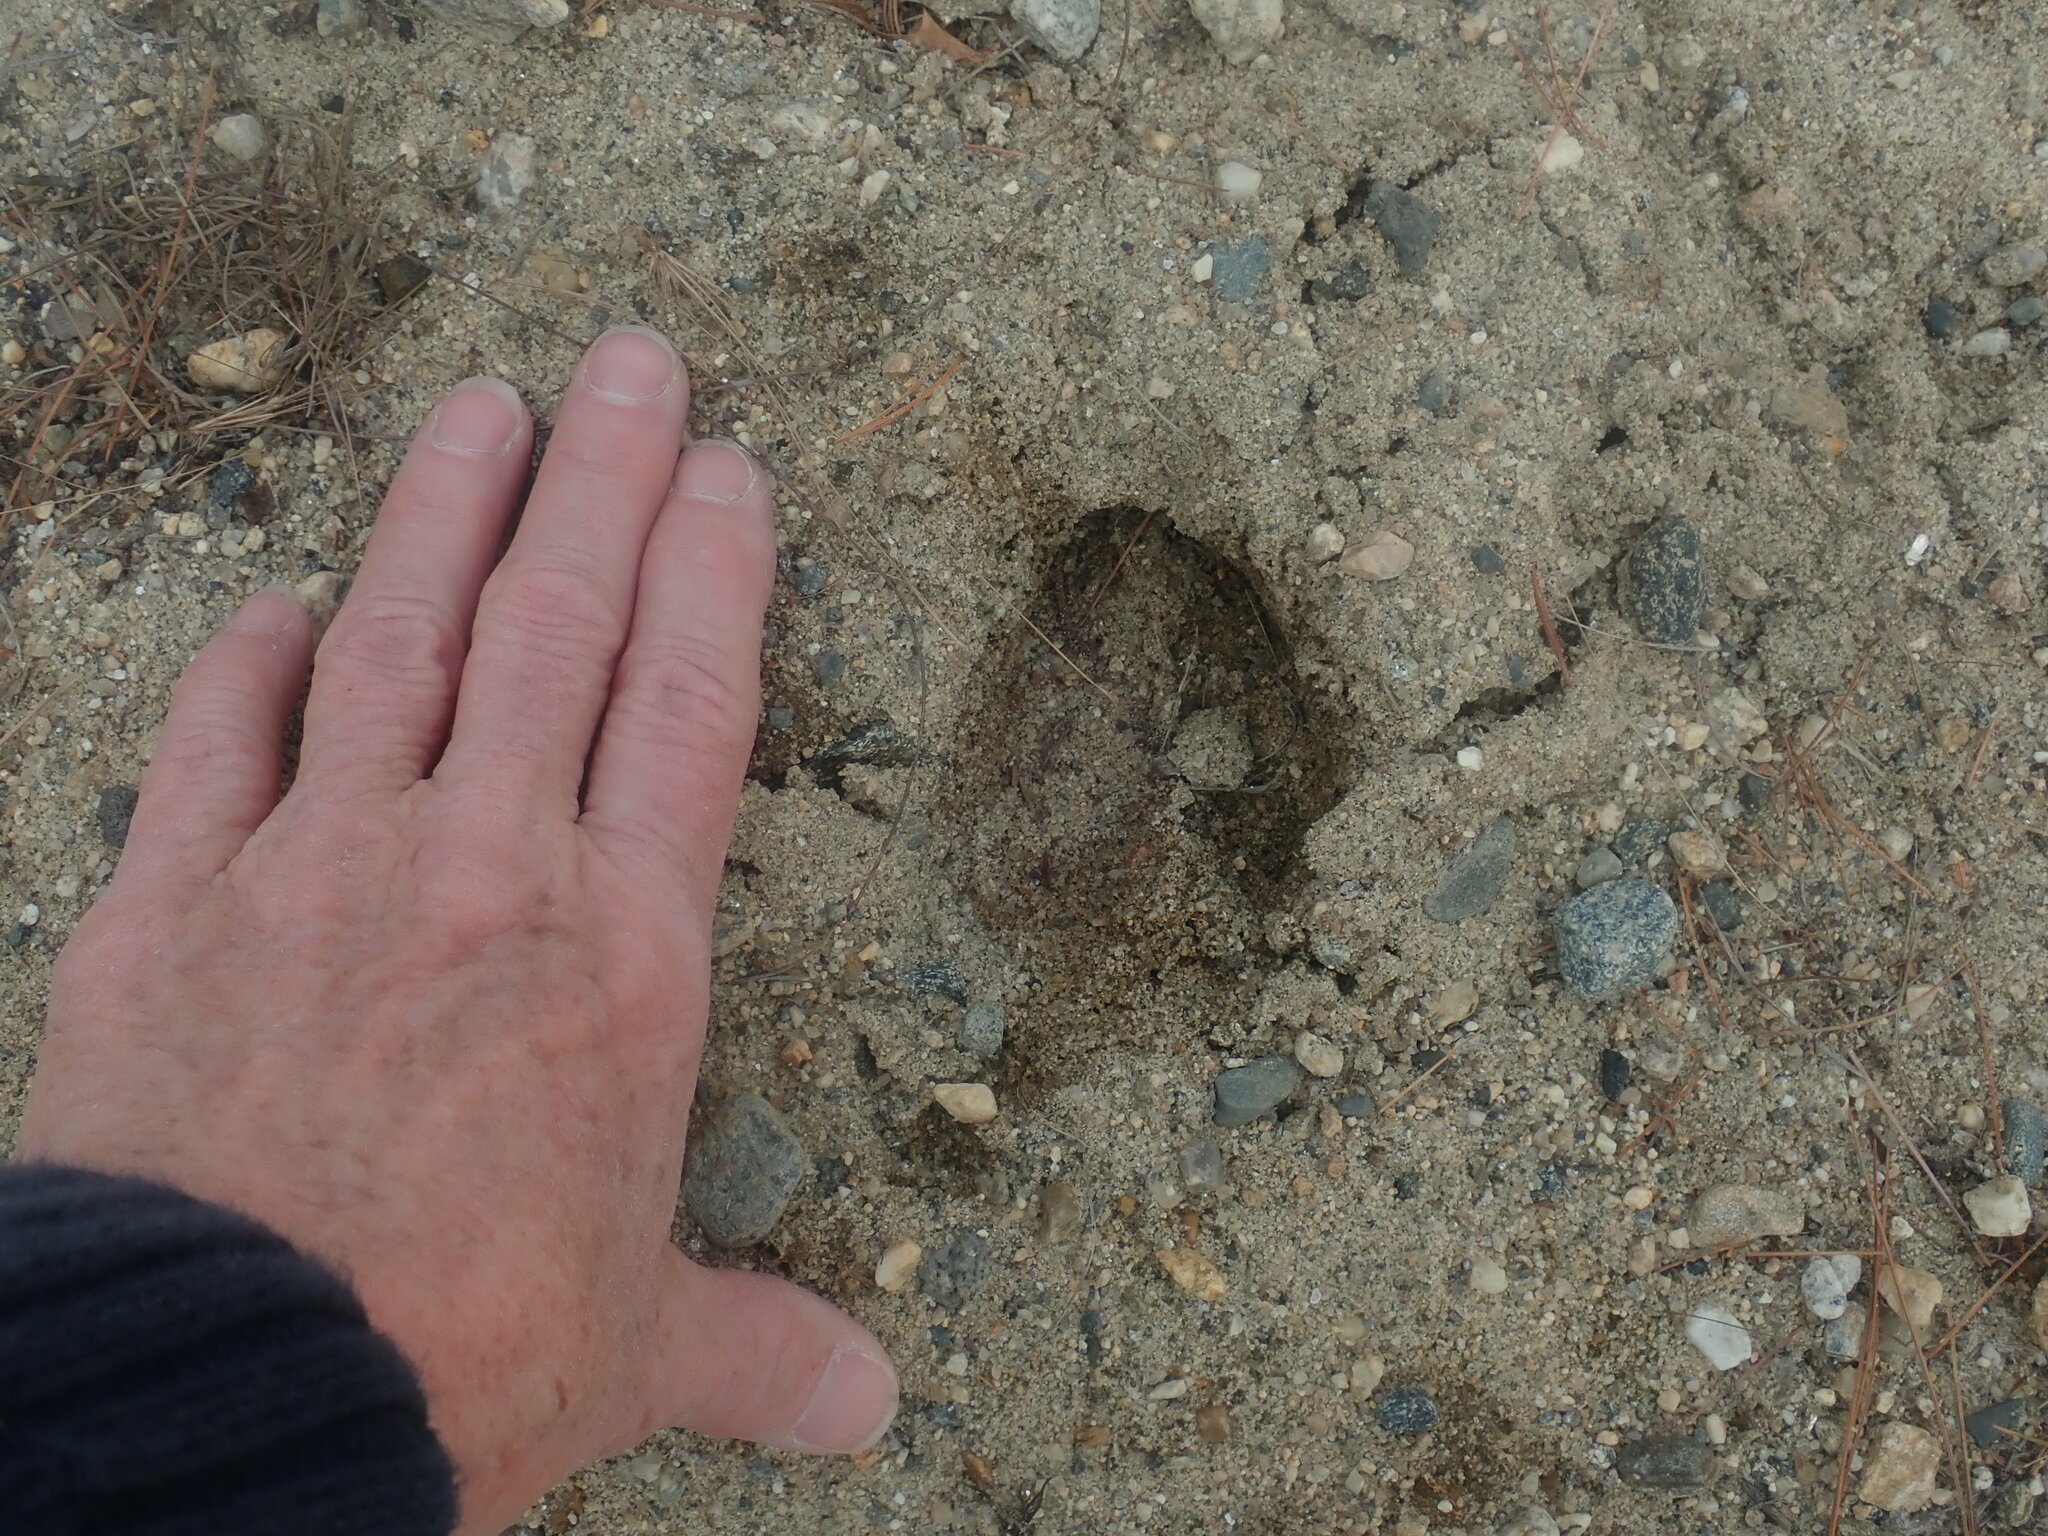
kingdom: Animalia
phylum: Chordata
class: Mammalia
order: Artiodactyla
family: Cervidae
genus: Odocoileus
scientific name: Odocoileus virginianus
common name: White-tailed deer
